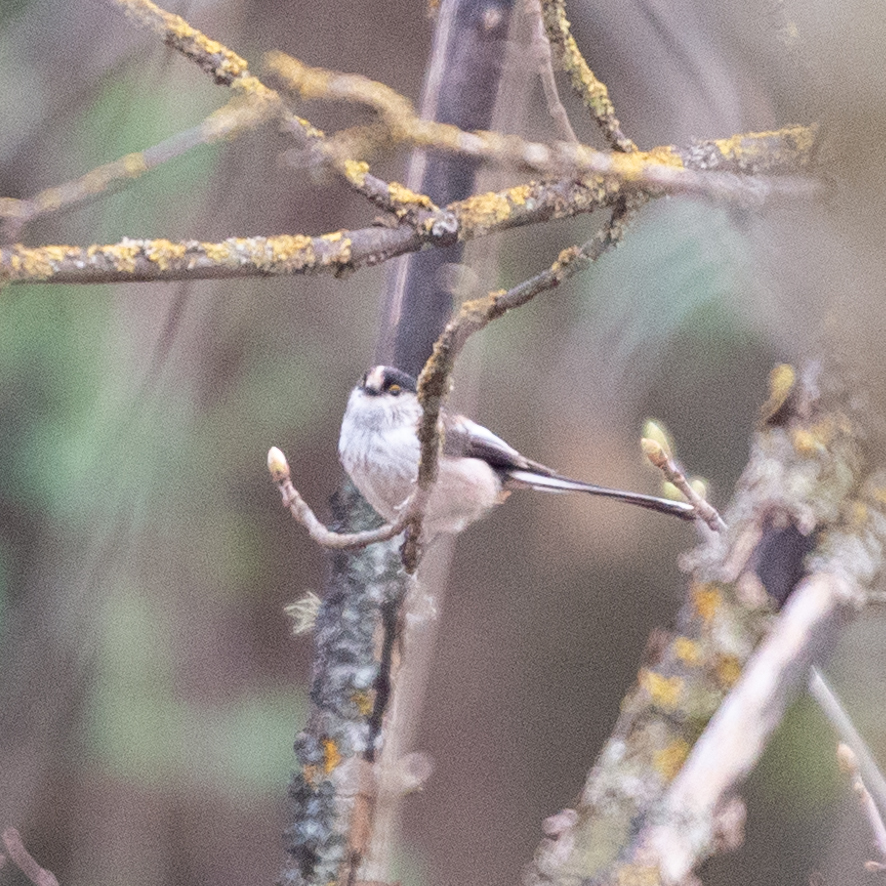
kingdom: Animalia
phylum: Chordata
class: Aves
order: Passeriformes
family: Aegithalidae
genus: Aegithalos
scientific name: Aegithalos caudatus
